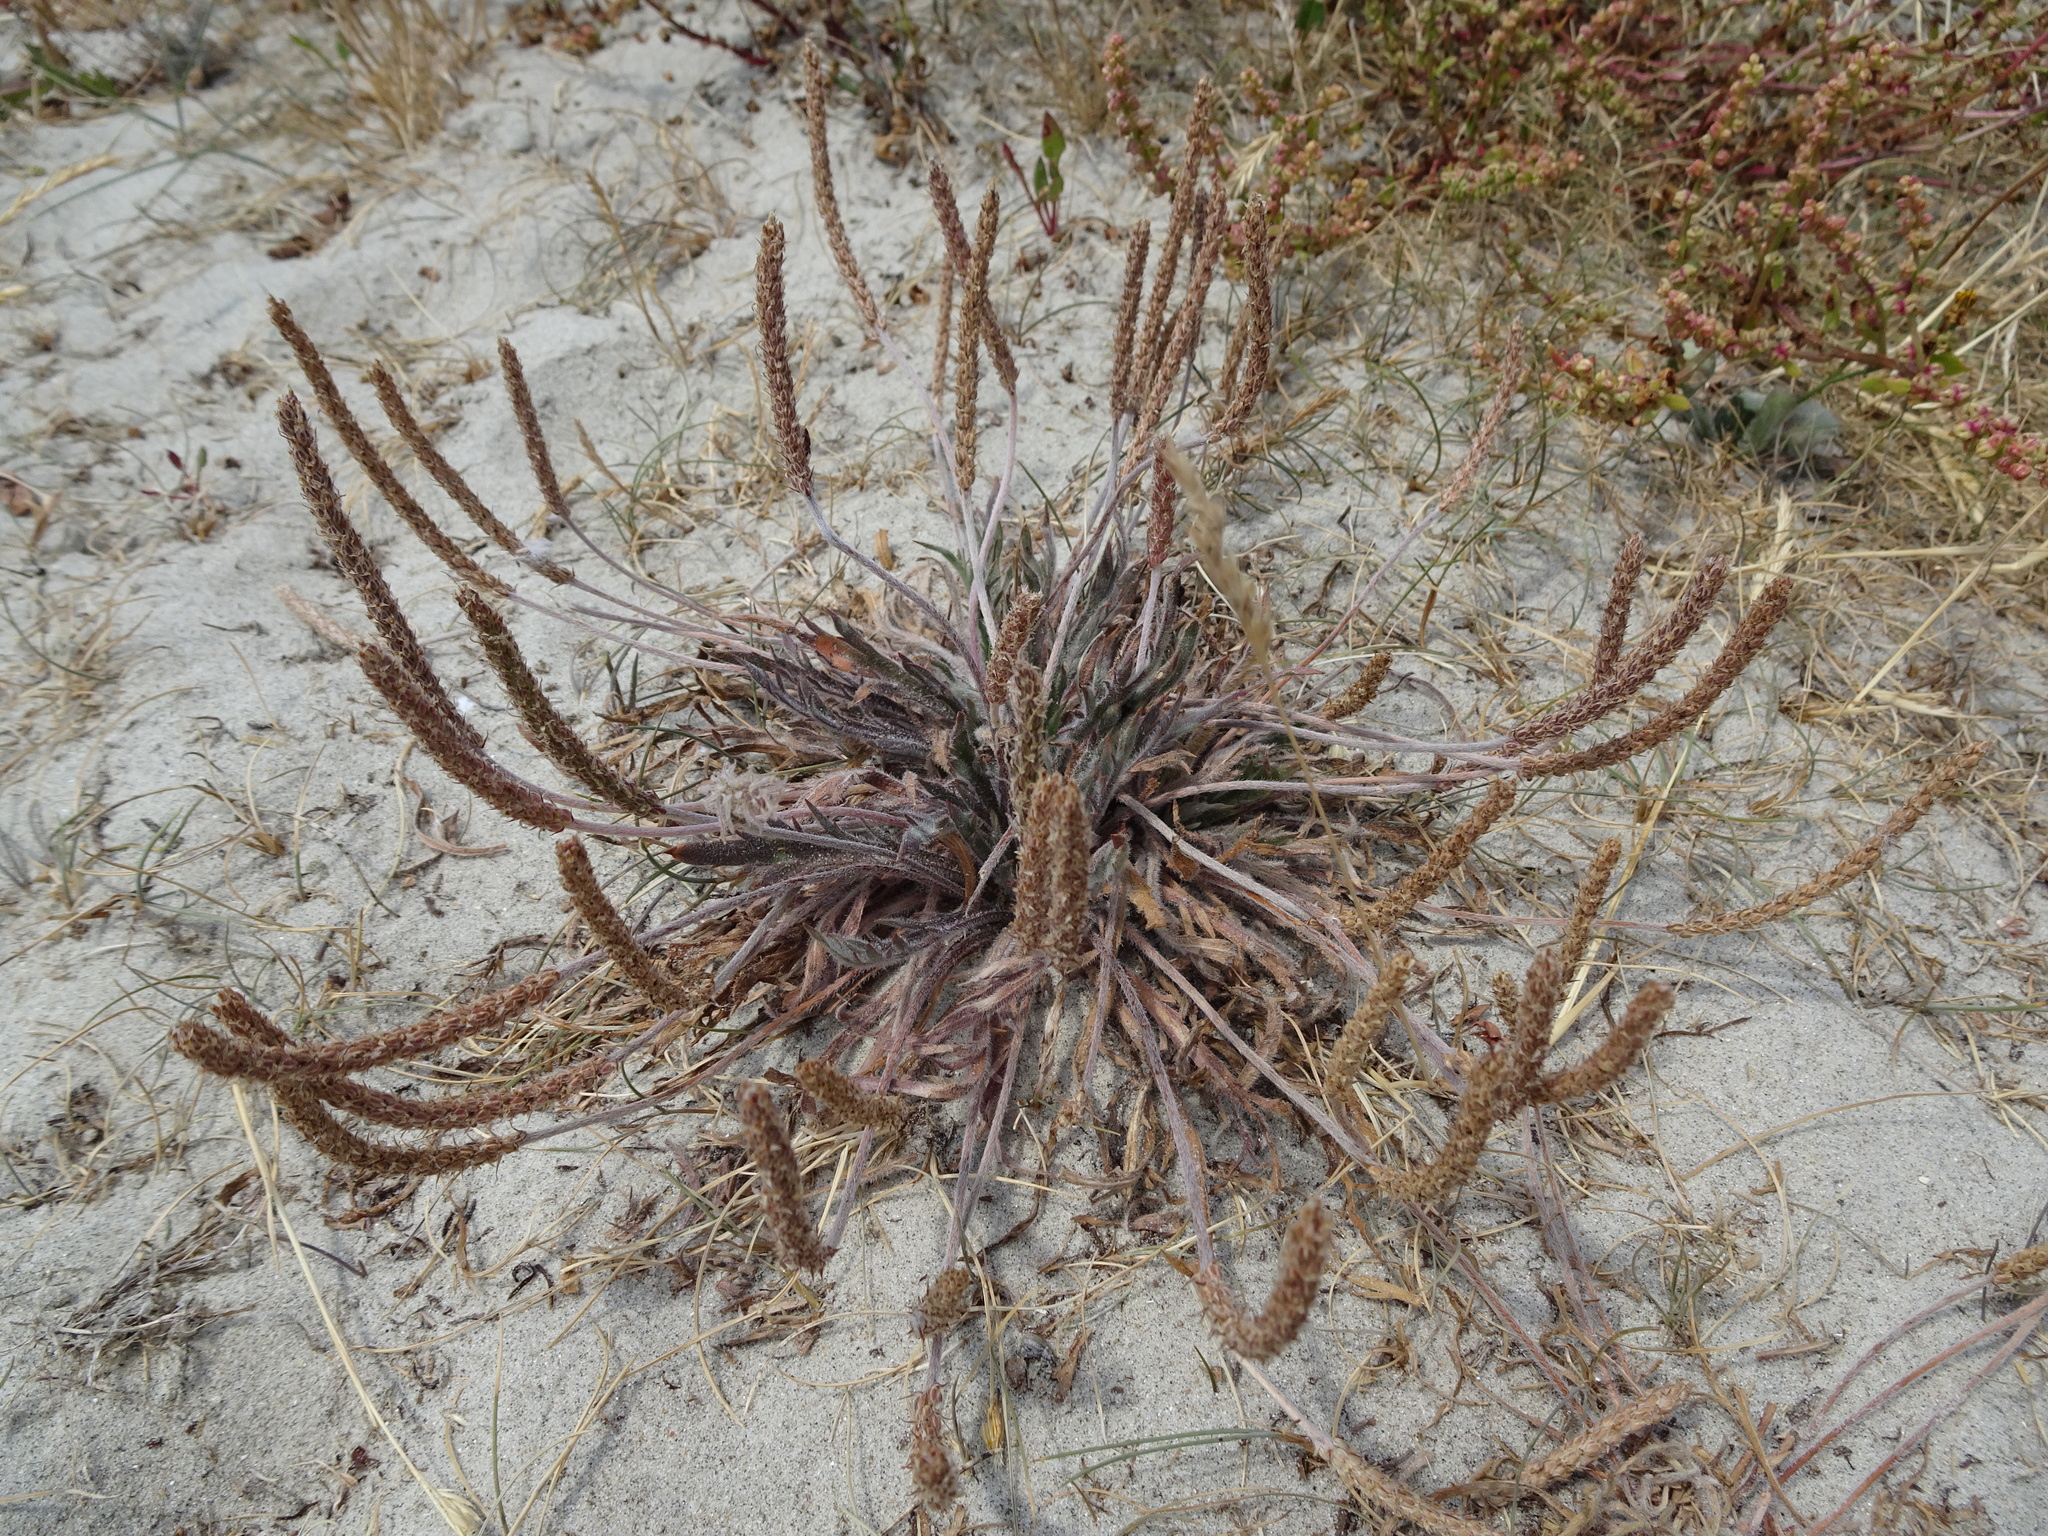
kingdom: Plantae
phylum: Tracheophyta
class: Magnoliopsida
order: Lamiales
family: Plantaginaceae
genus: Plantago
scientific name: Plantago coronopus
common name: Buck's-horn plantain
